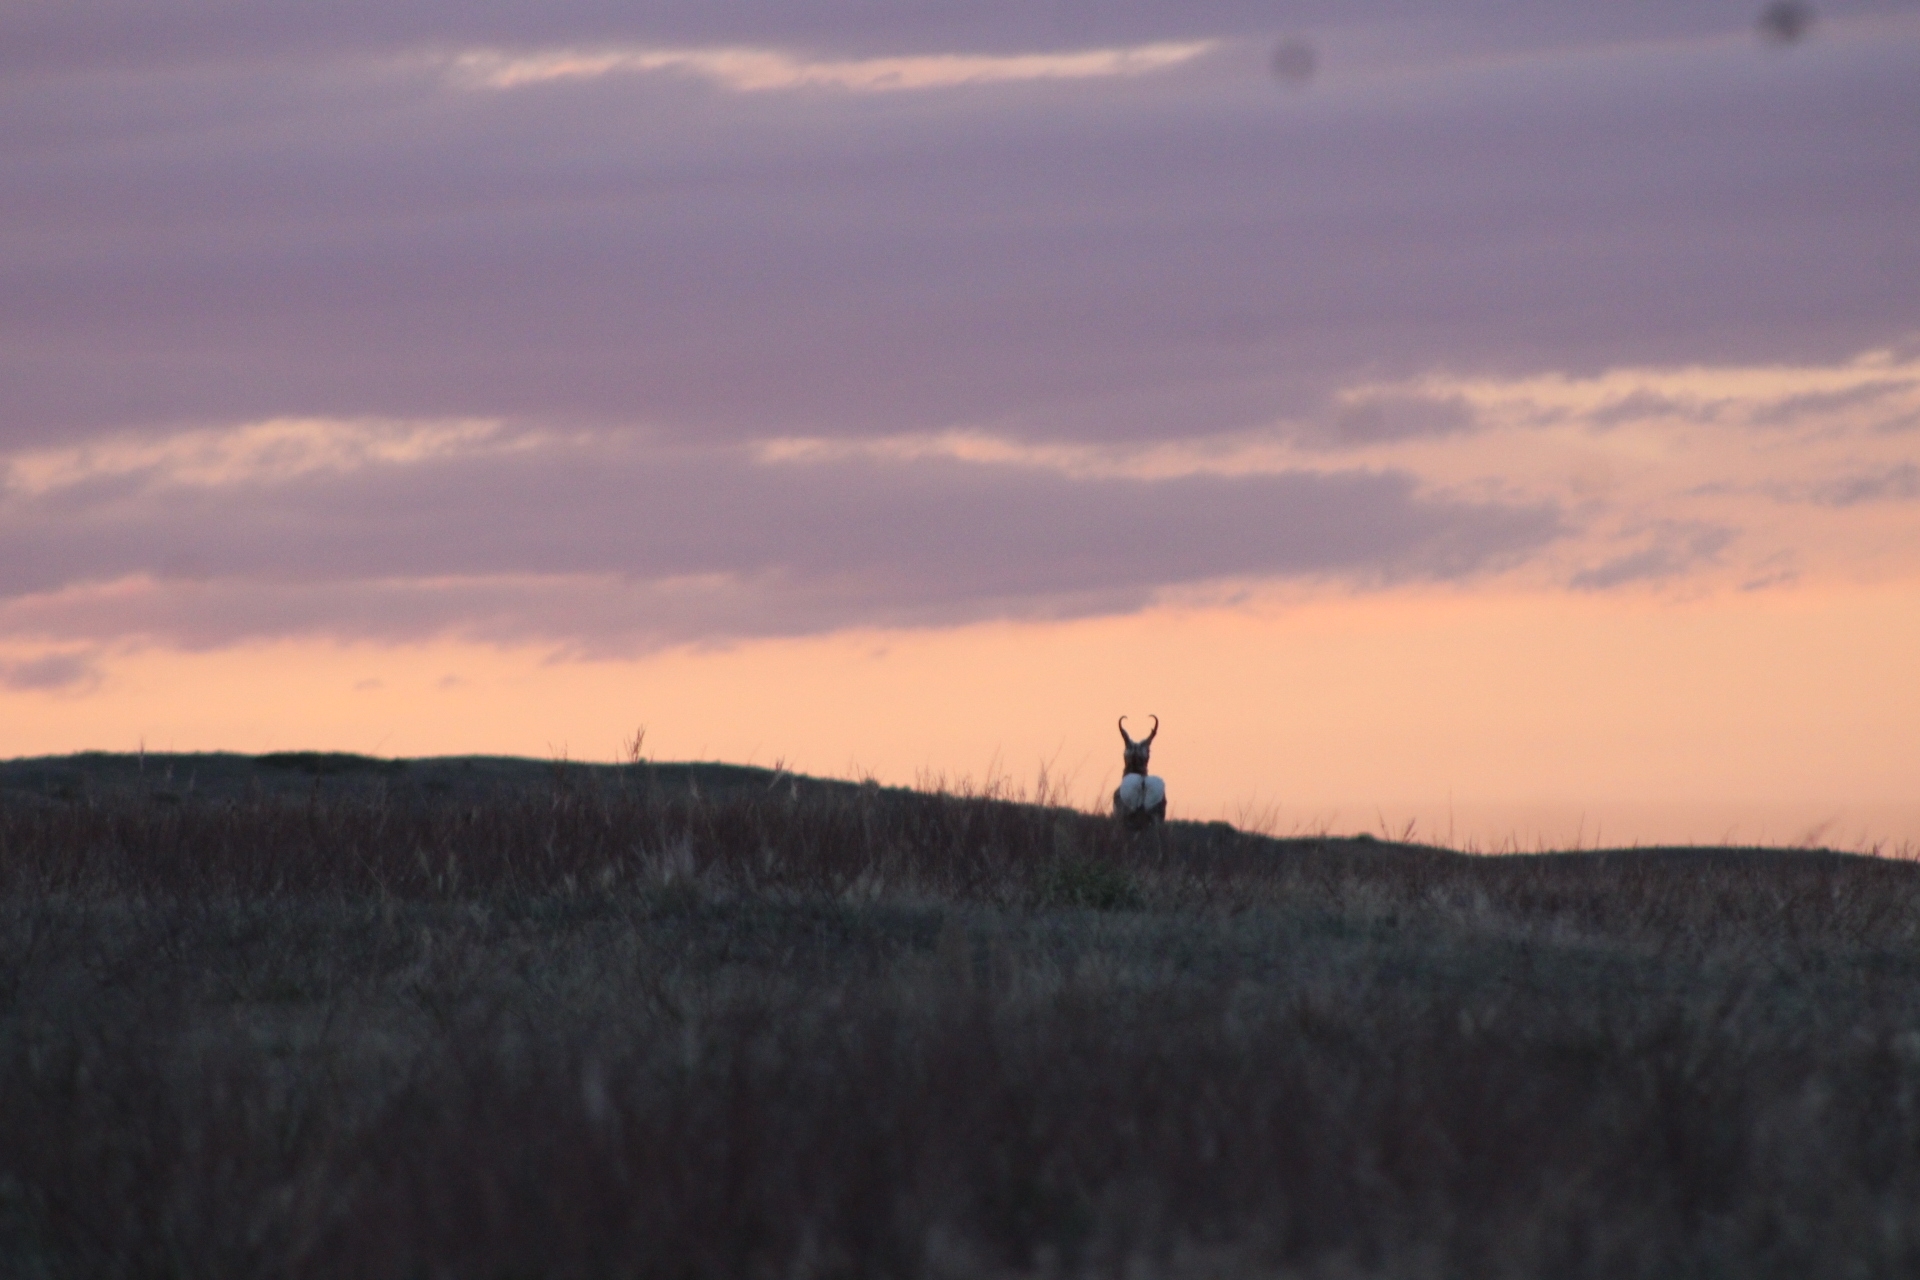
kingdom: Animalia
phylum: Chordata
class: Mammalia
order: Artiodactyla
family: Antilocapridae
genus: Antilocapra
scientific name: Antilocapra americana
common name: Pronghorn
